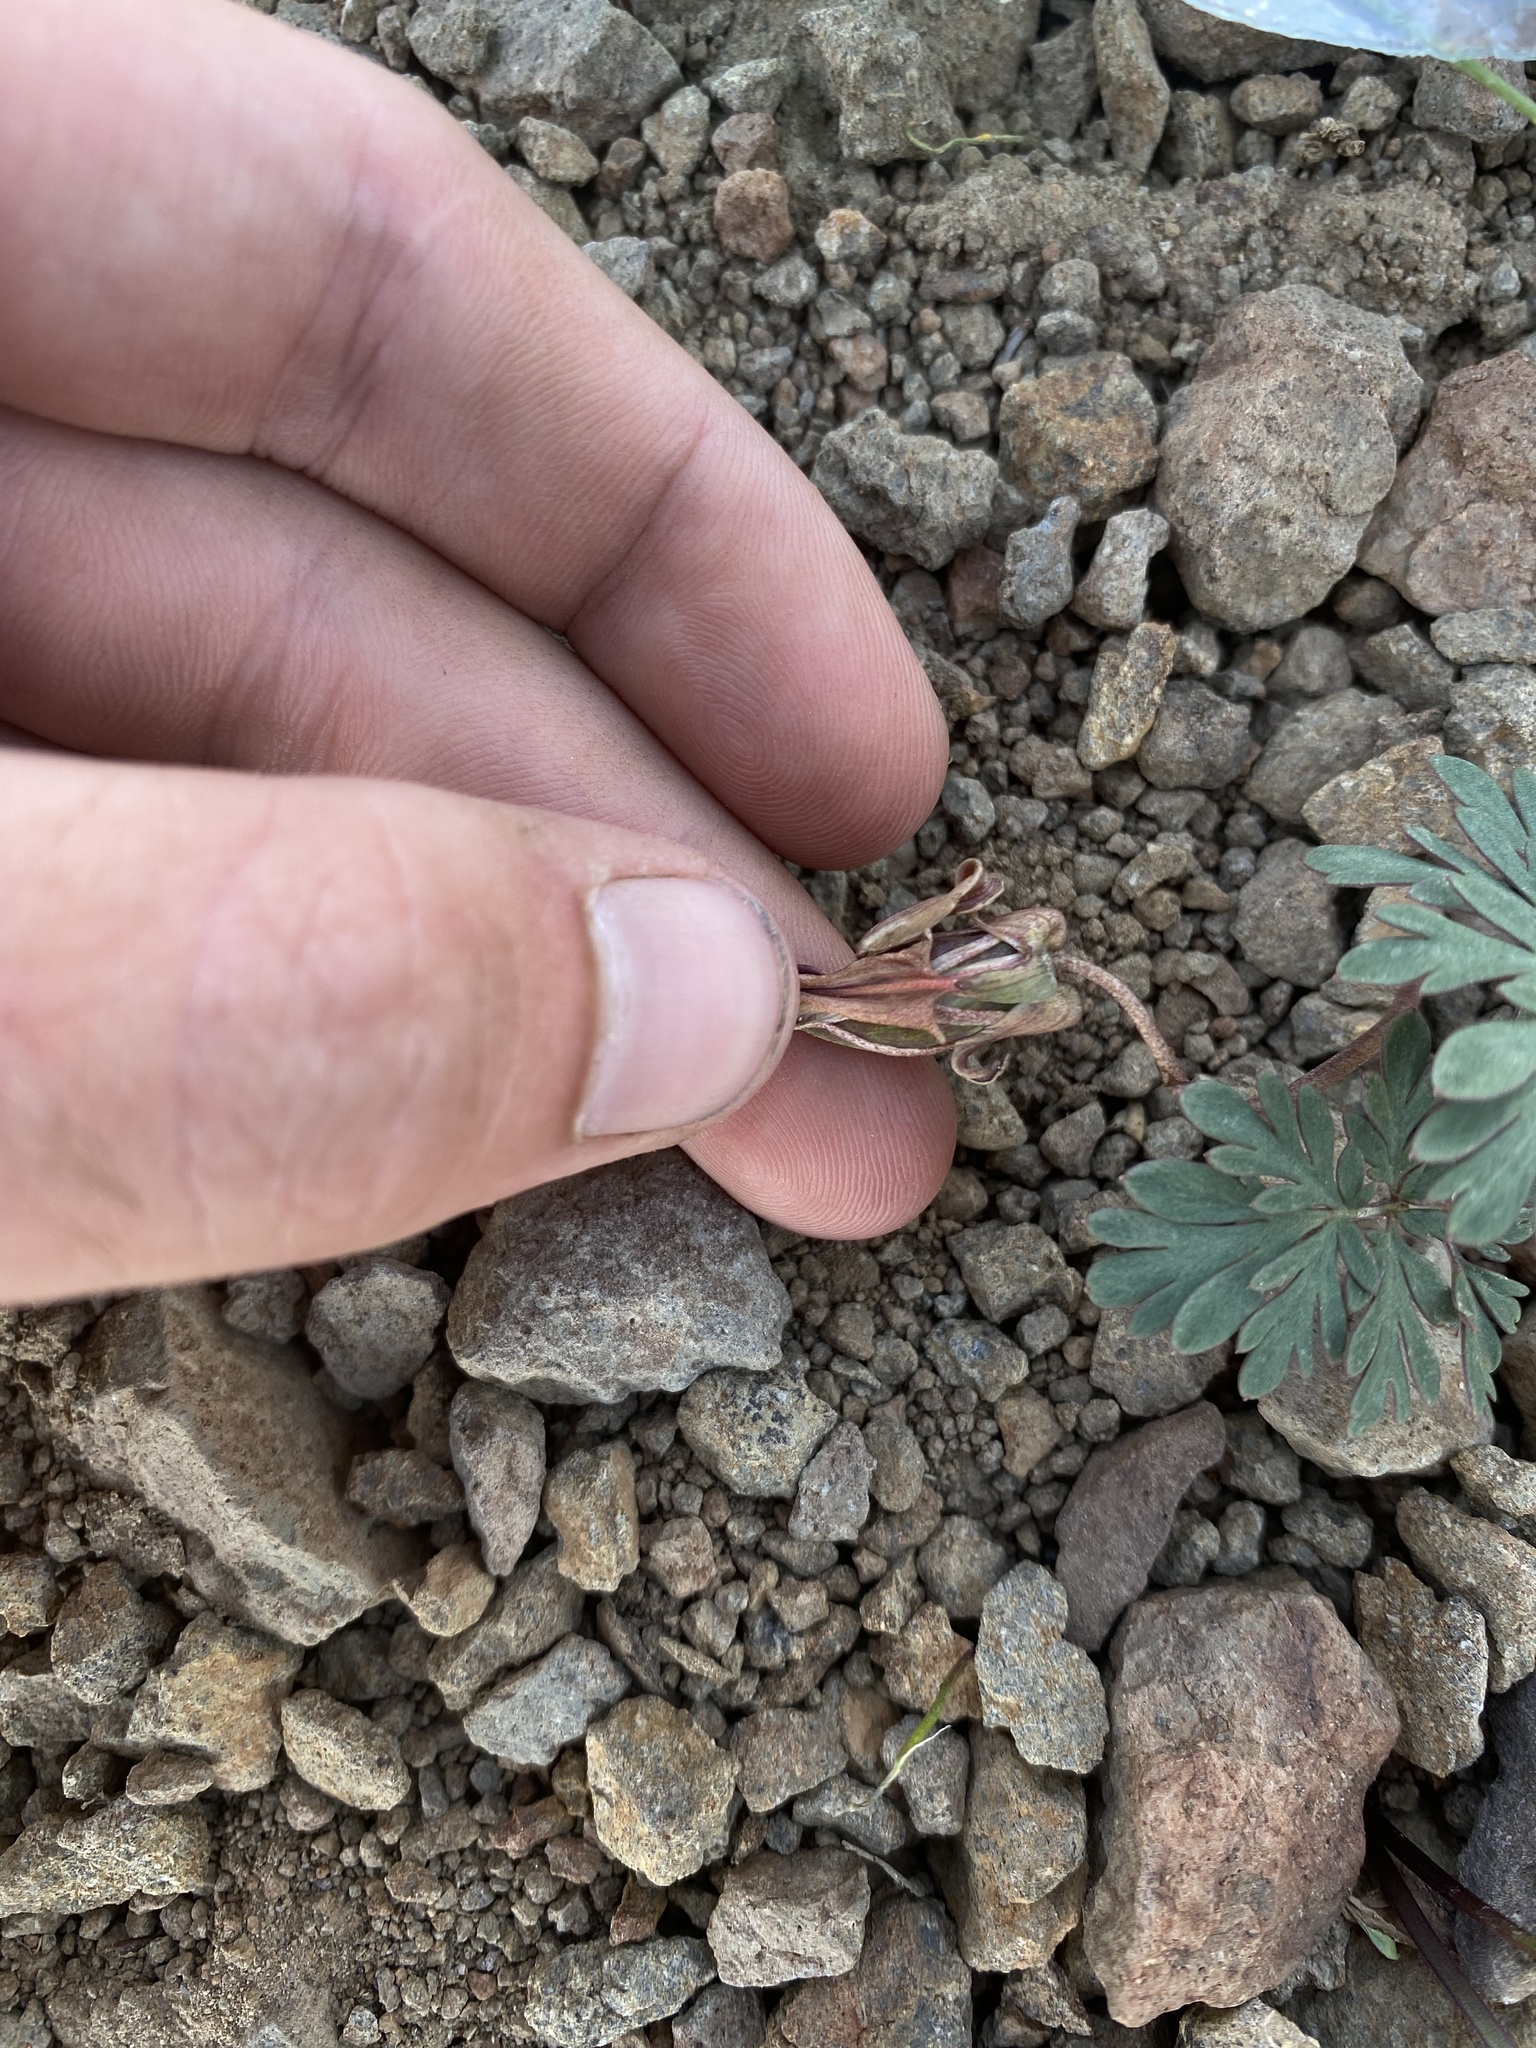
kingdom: Plantae
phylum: Tracheophyta
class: Magnoliopsida
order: Ranunculales
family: Papaveraceae
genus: Dicentra
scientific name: Dicentra uniflora
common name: Steer's-head
